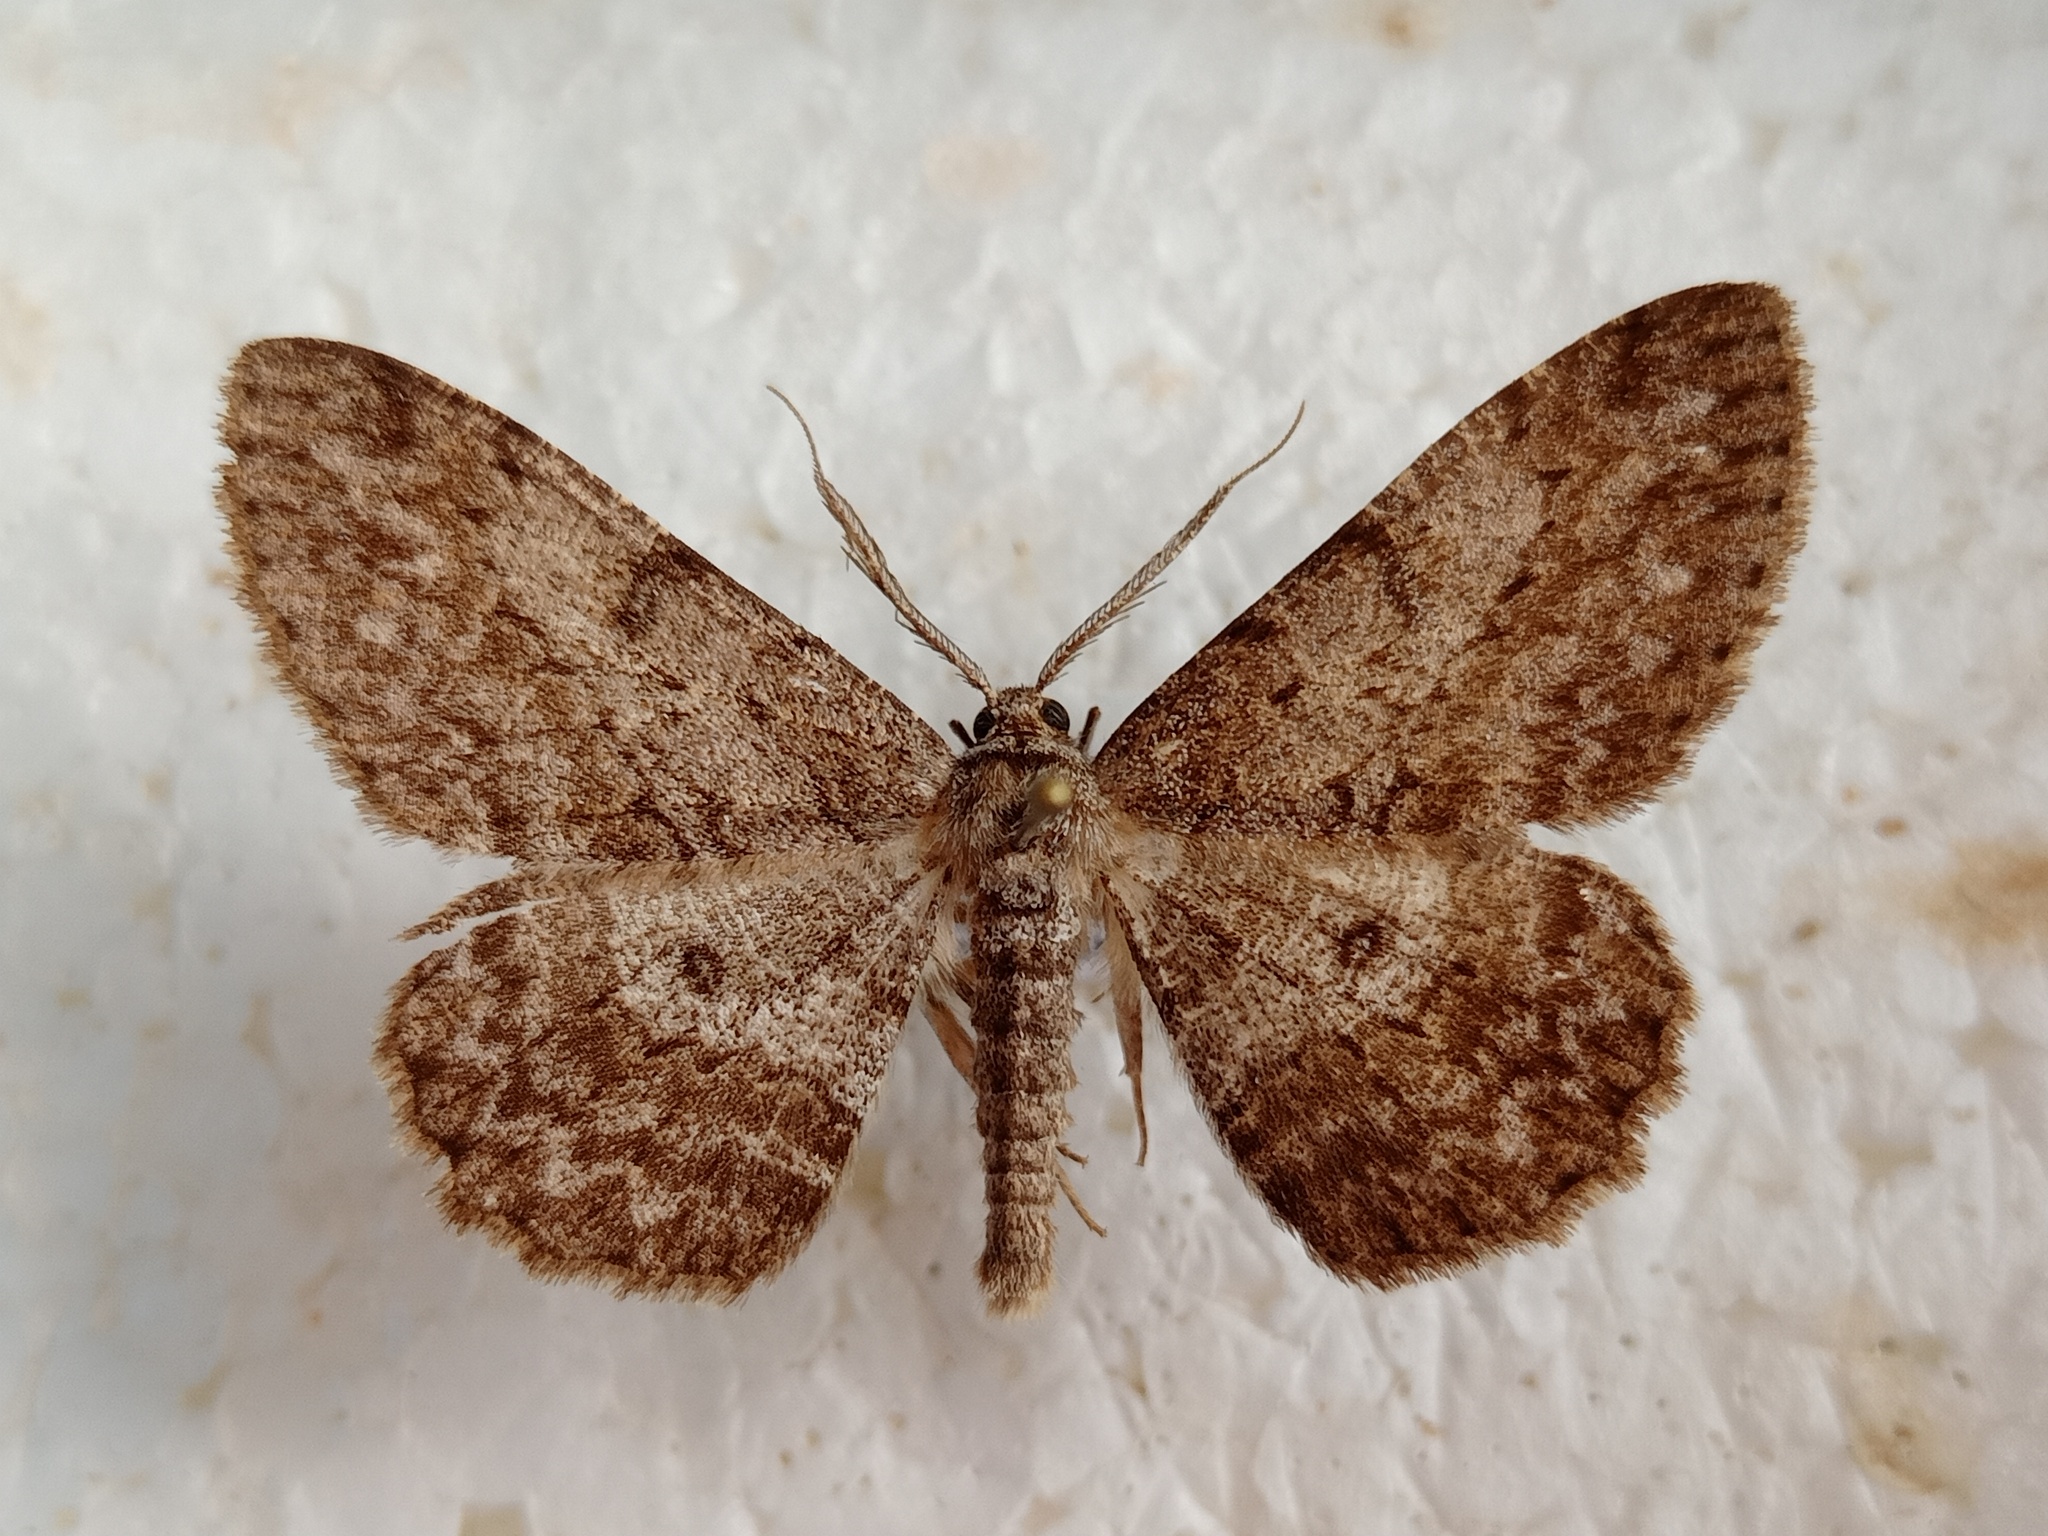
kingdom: Animalia
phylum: Arthropoda
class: Insecta
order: Lepidoptera
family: Geometridae
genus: Hypomecis
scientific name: Hypomecis punctinalis
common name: Pale oak beauty
